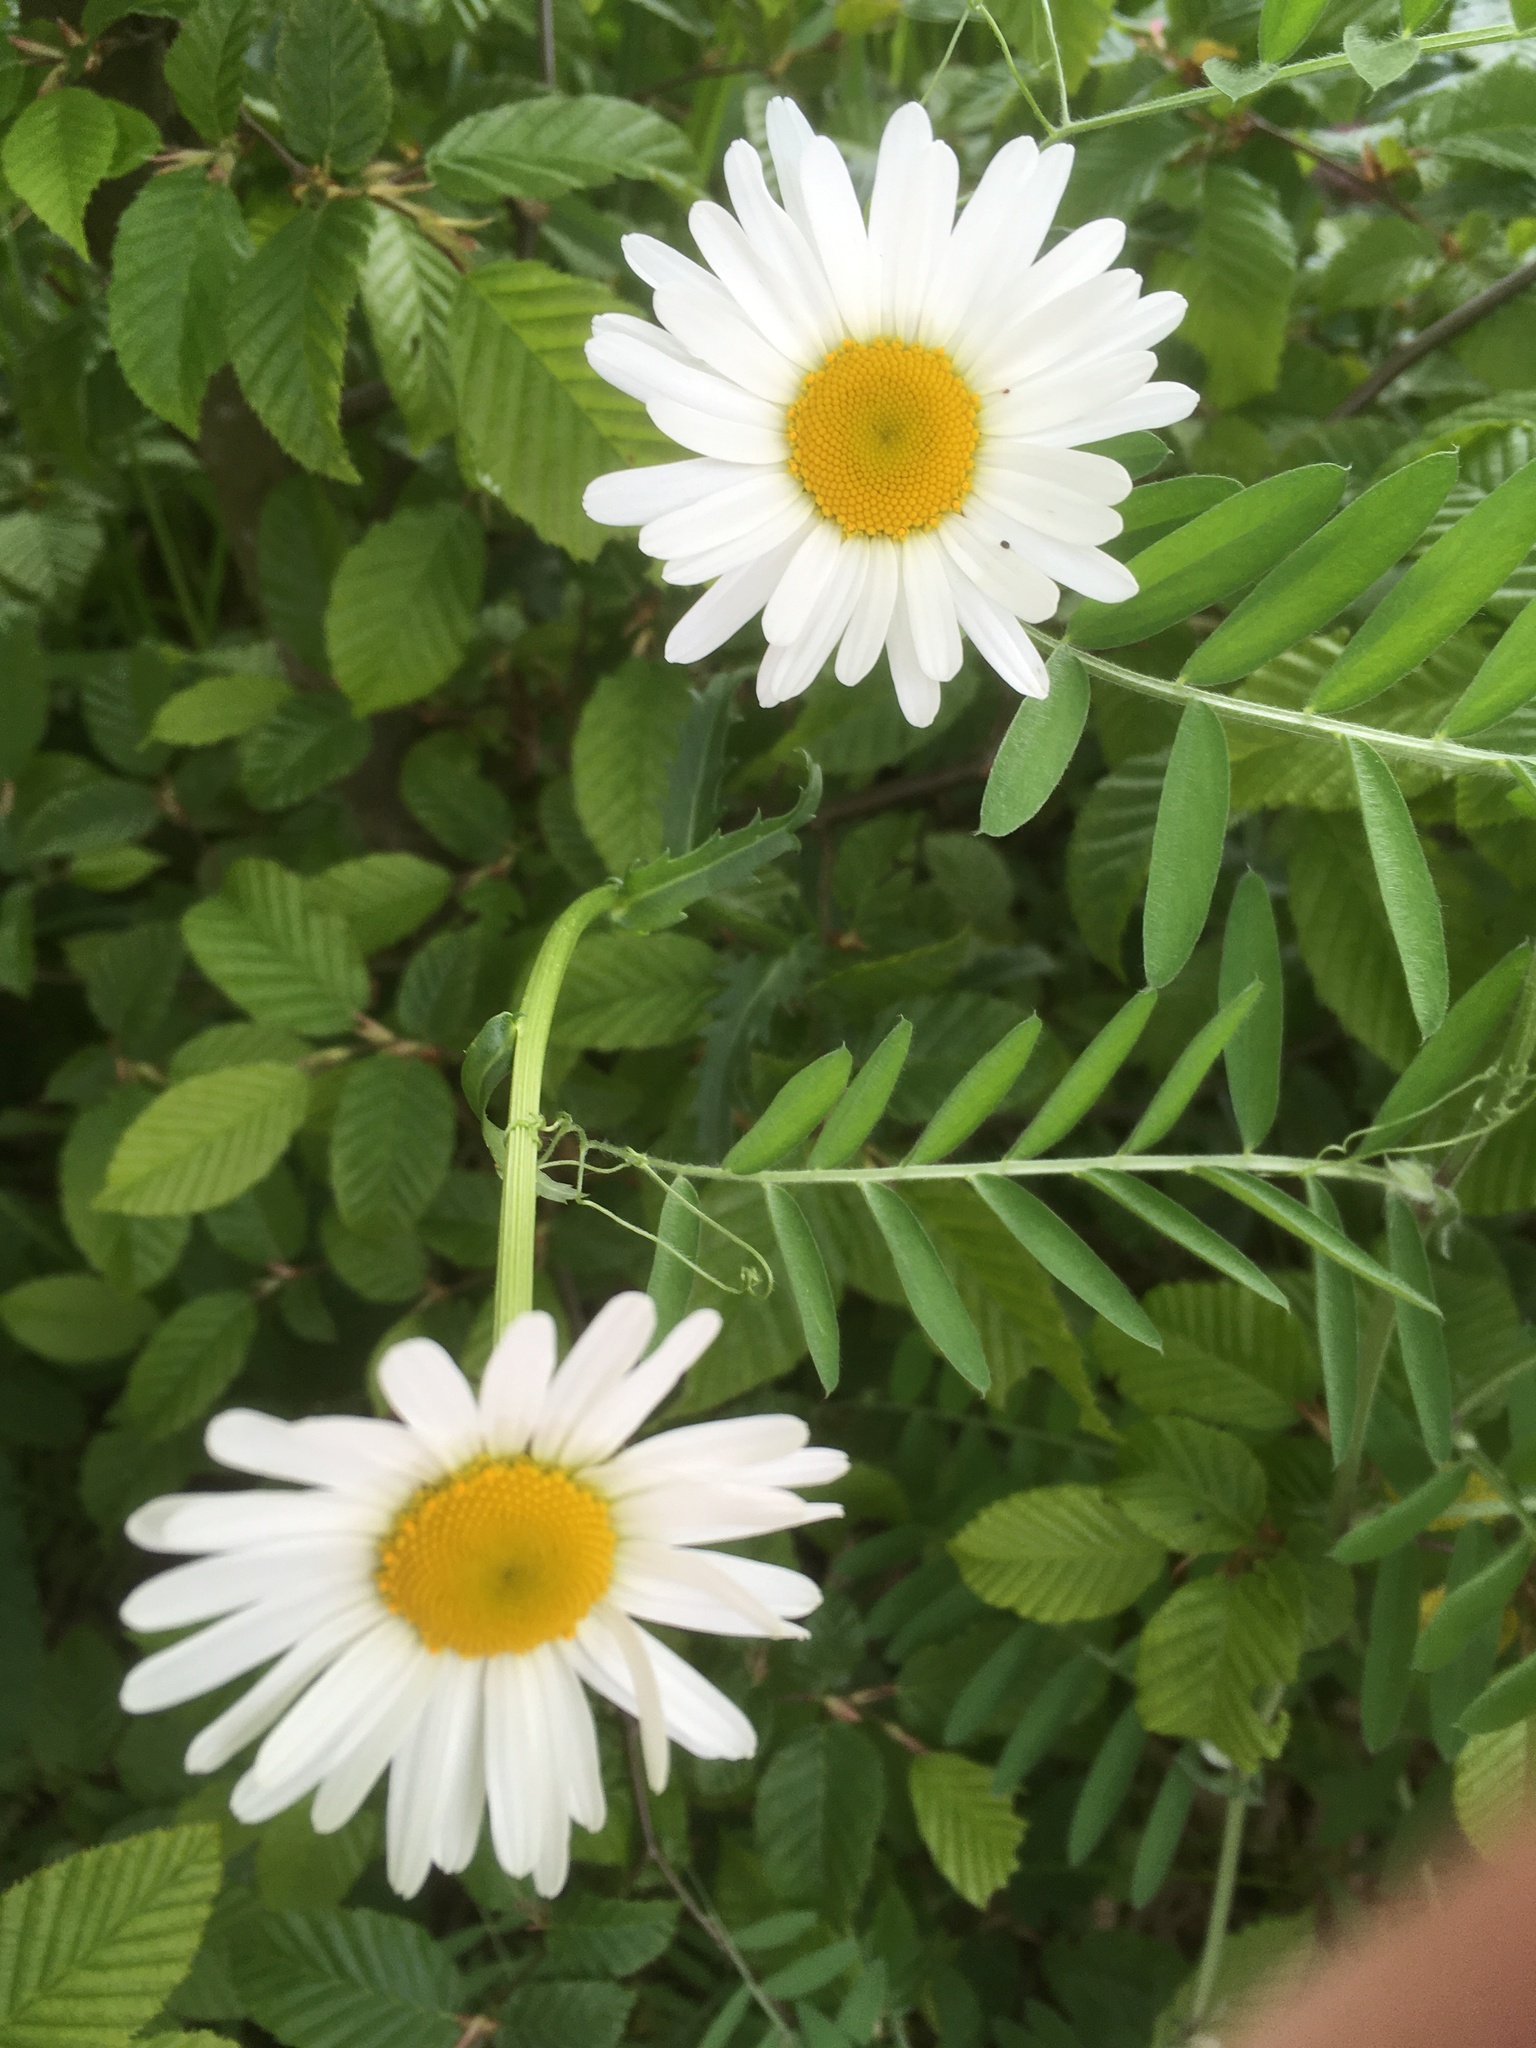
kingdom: Plantae
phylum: Tracheophyta
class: Magnoliopsida
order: Asterales
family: Asteraceae
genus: Leucanthemum
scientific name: Leucanthemum vulgare
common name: Oxeye daisy
